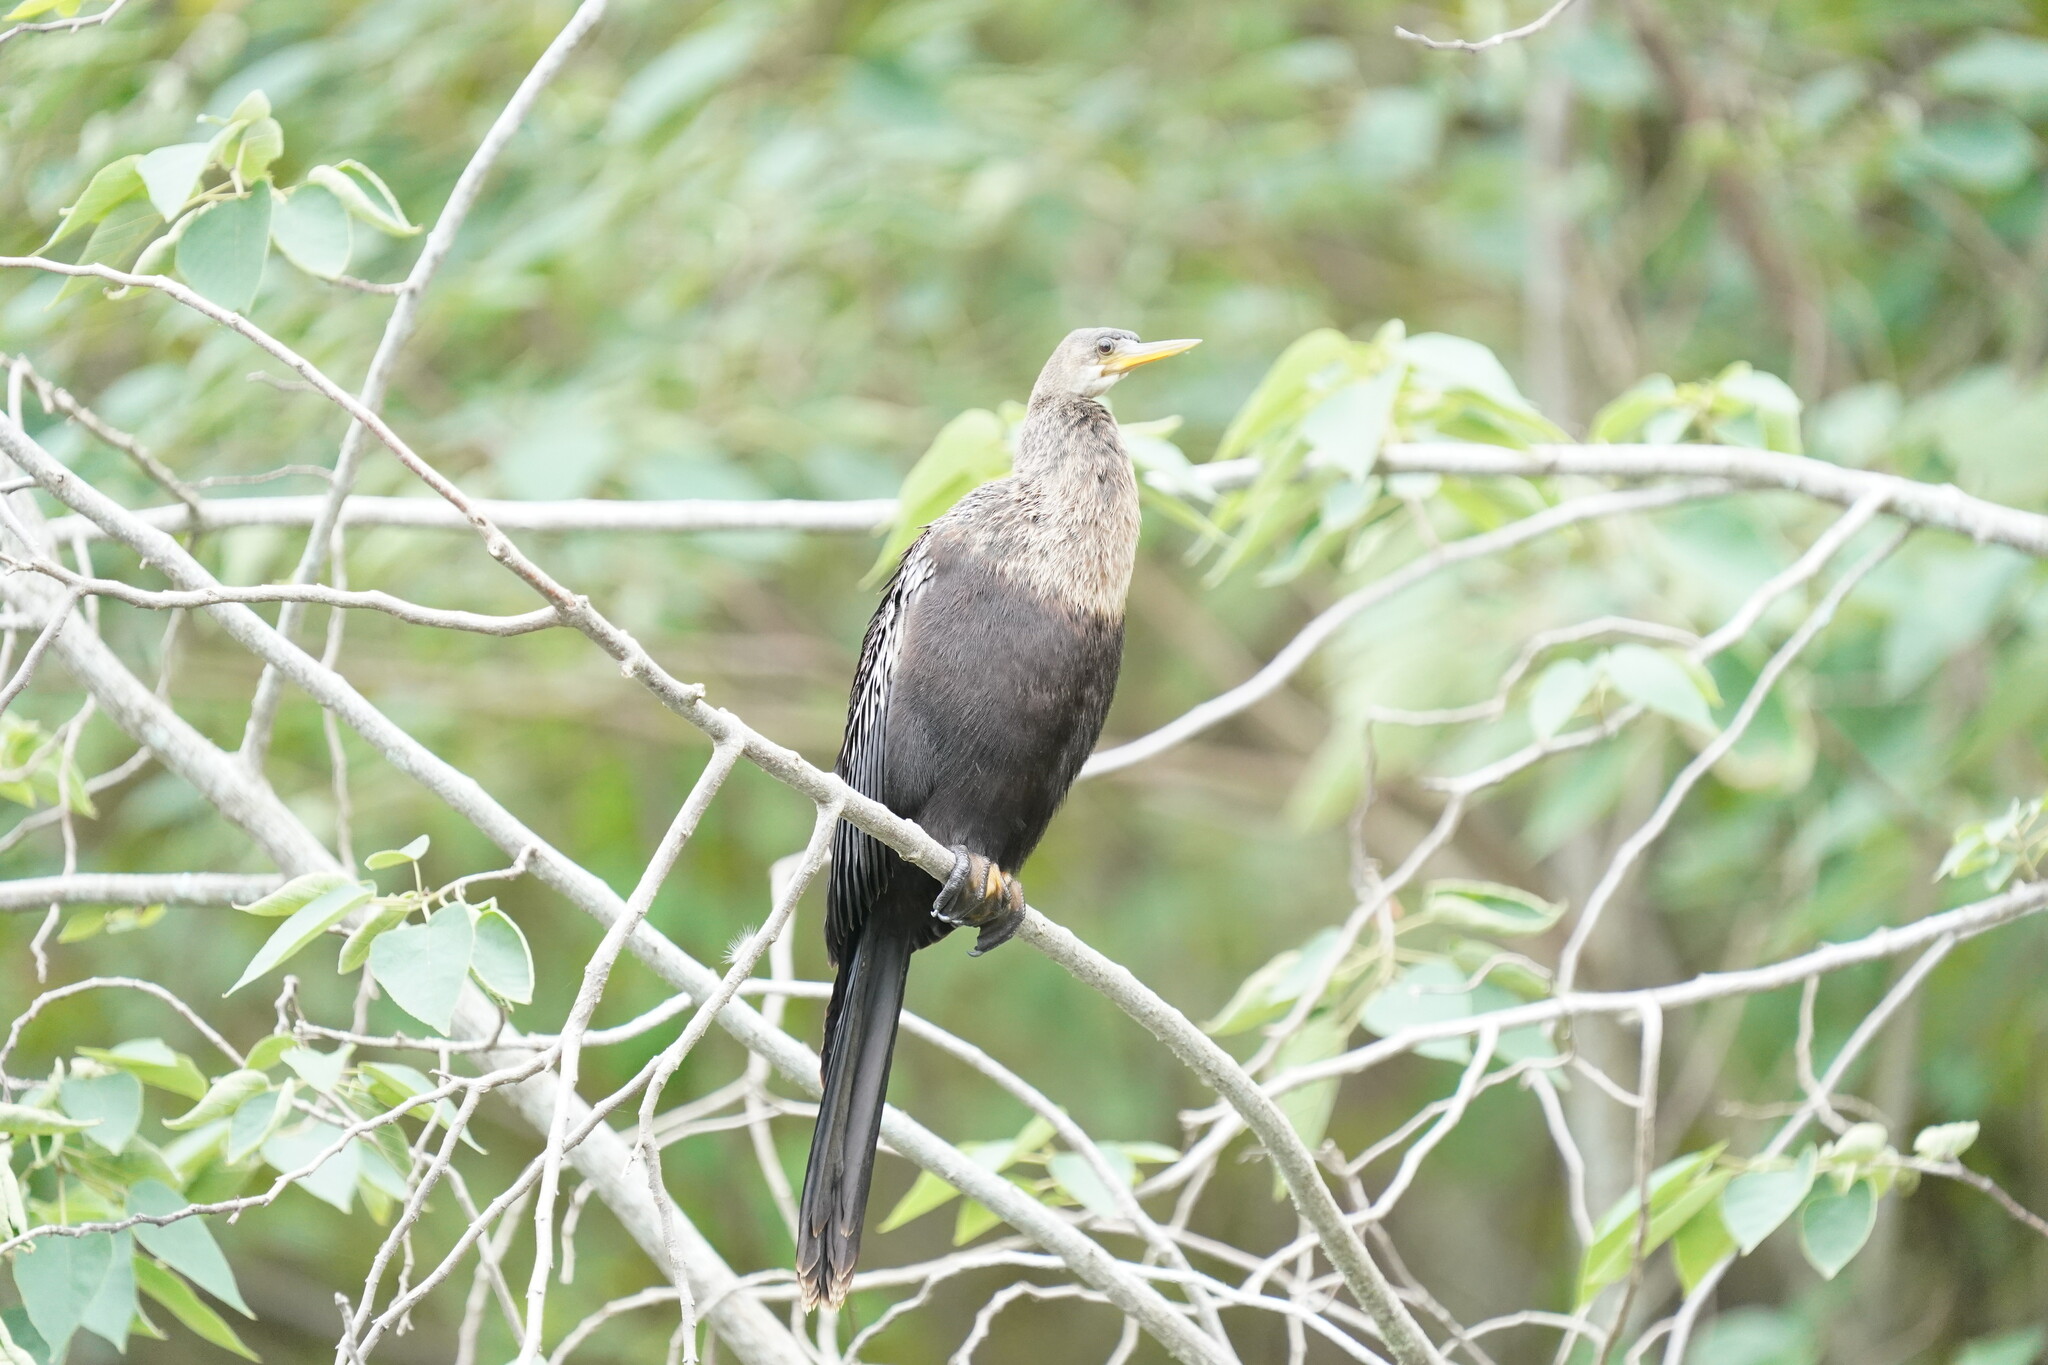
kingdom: Animalia
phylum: Chordata
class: Aves
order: Suliformes
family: Anhingidae
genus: Anhinga
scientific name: Anhinga anhinga
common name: Anhinga
